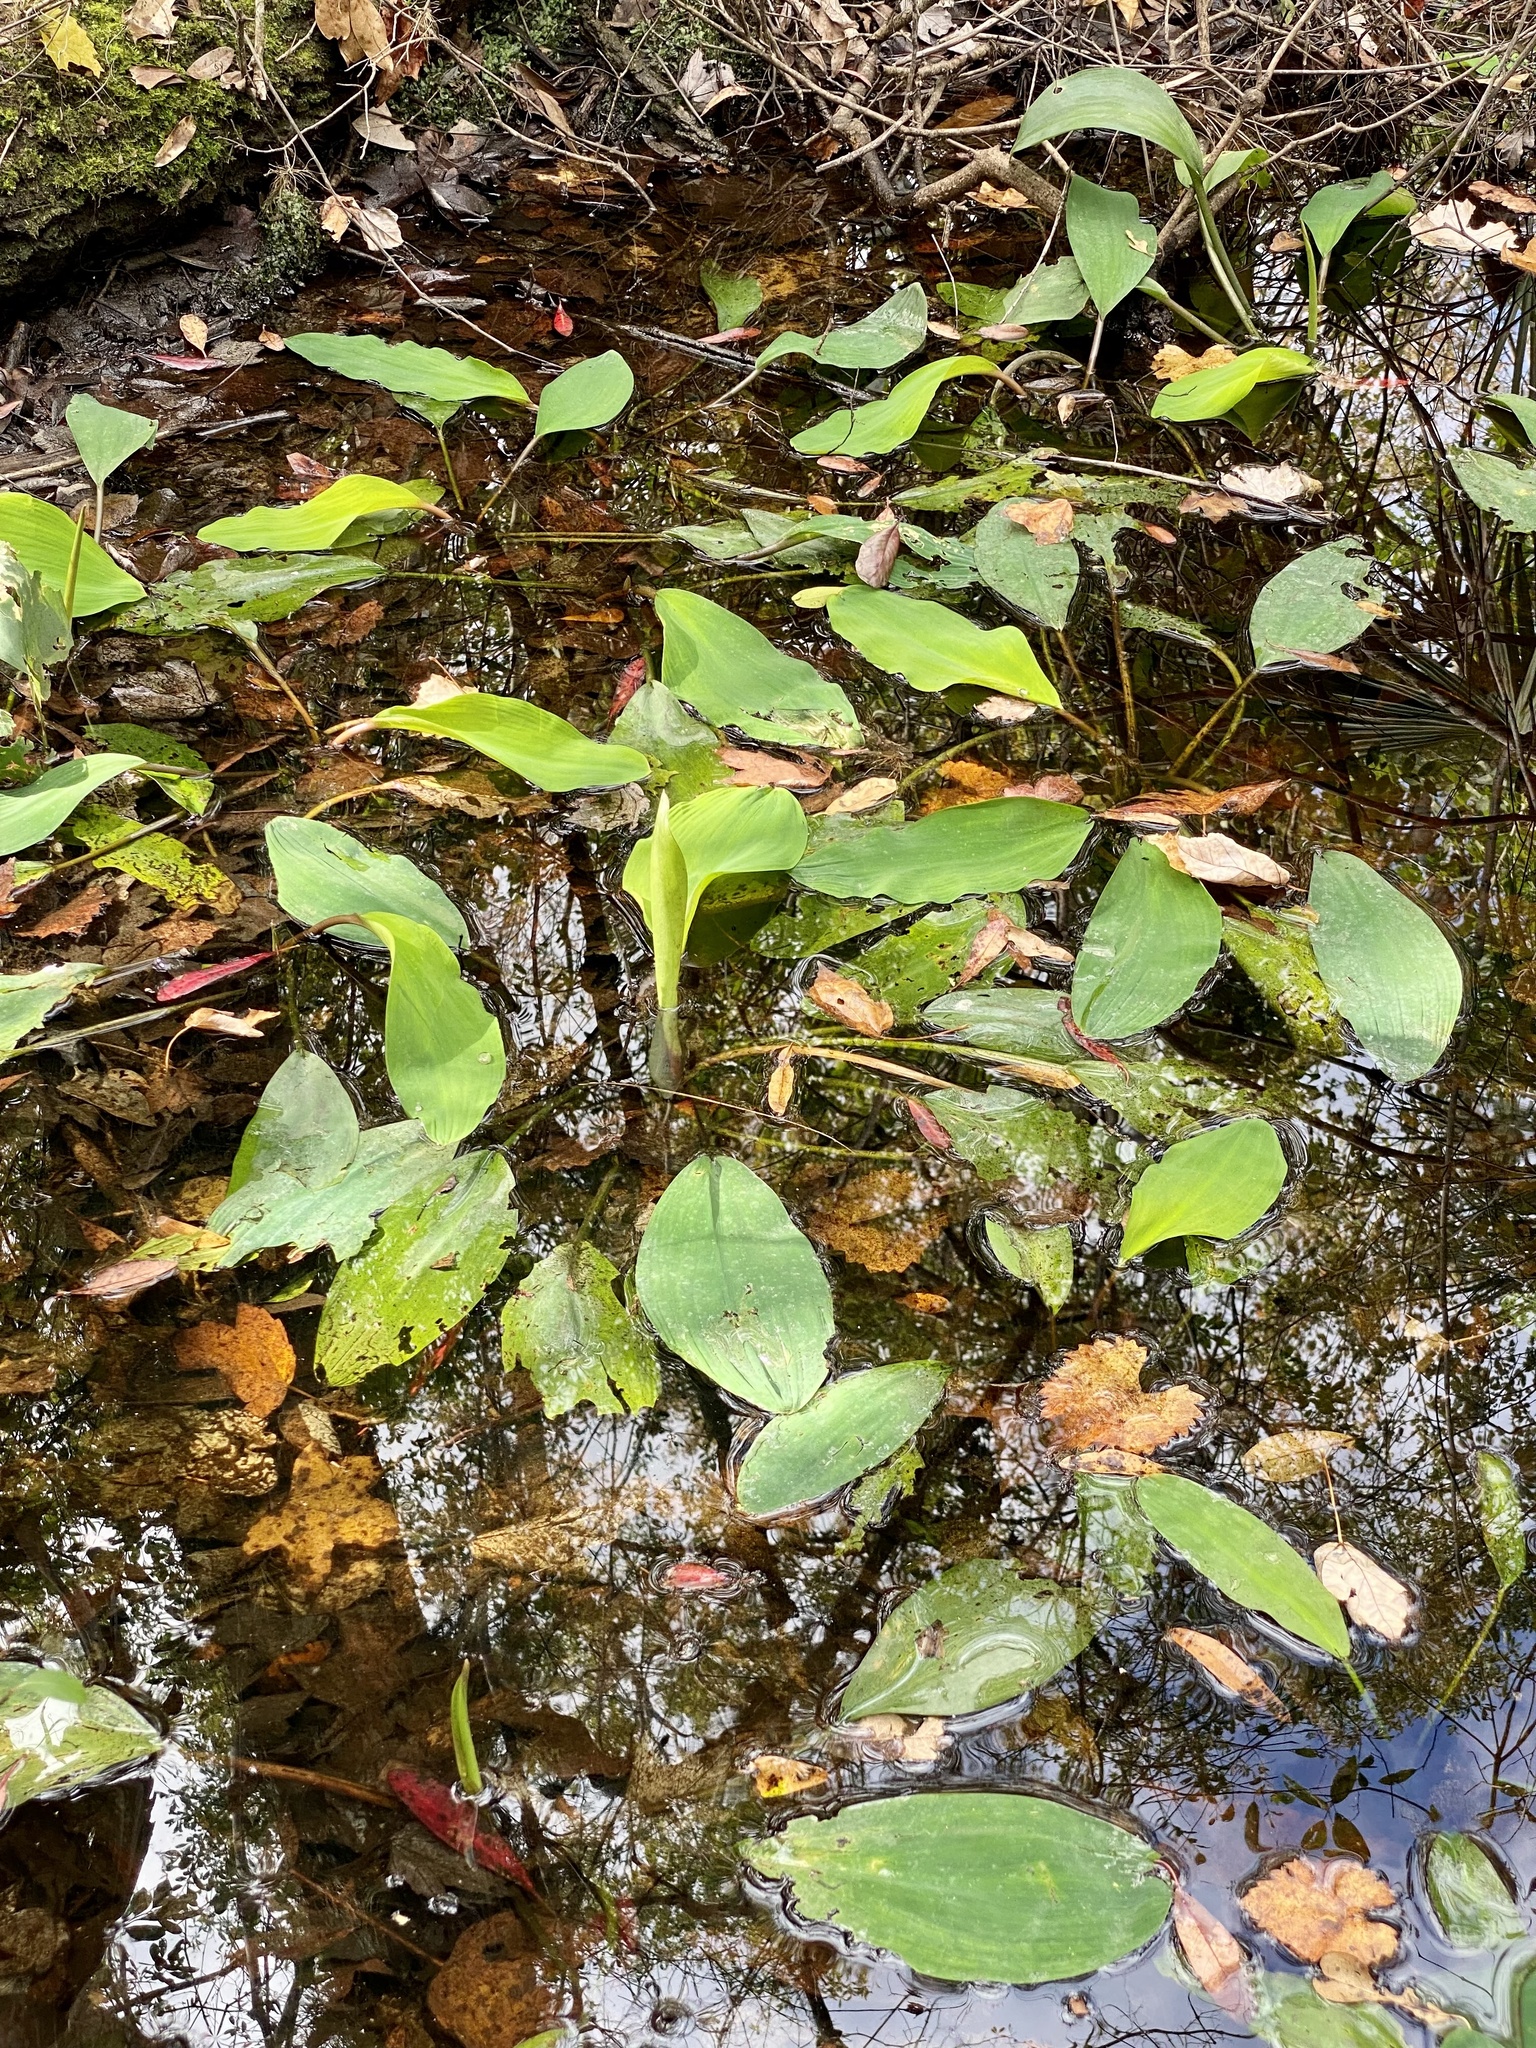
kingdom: Plantae
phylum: Tracheophyta
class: Liliopsida
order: Alismatales
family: Araceae
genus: Orontium
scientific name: Orontium aquaticum
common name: Golden-club
